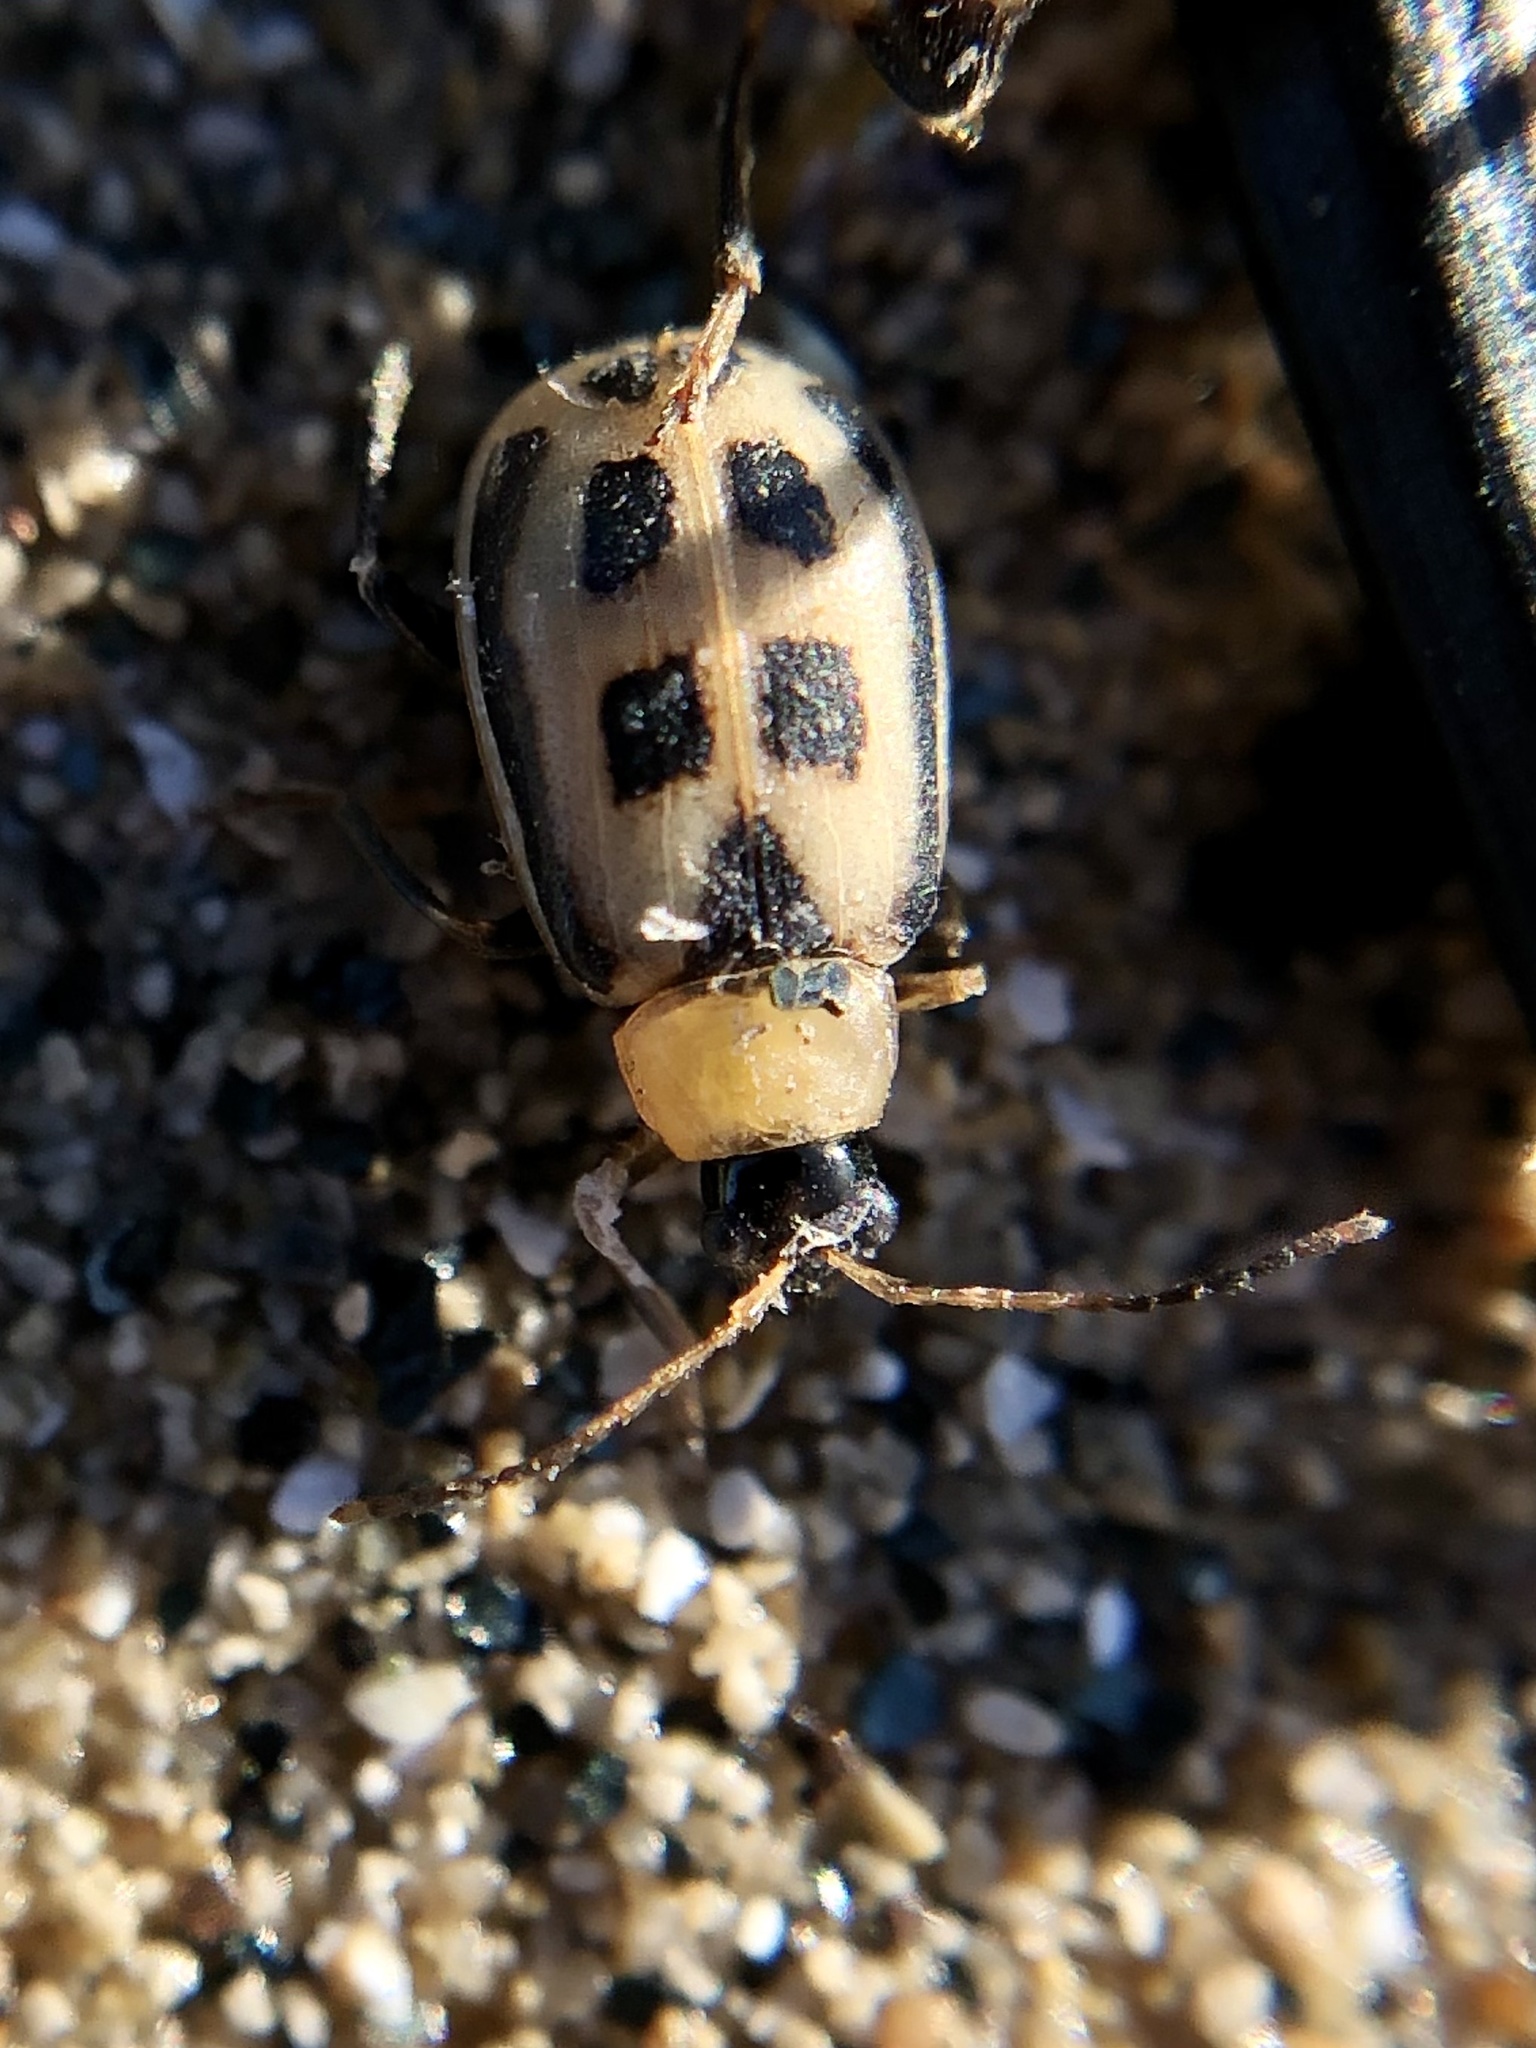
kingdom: Animalia
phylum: Arthropoda
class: Insecta
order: Coleoptera
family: Chrysomelidae
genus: Cerotoma
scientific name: Cerotoma trifurcata
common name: Bean leaf beetle
